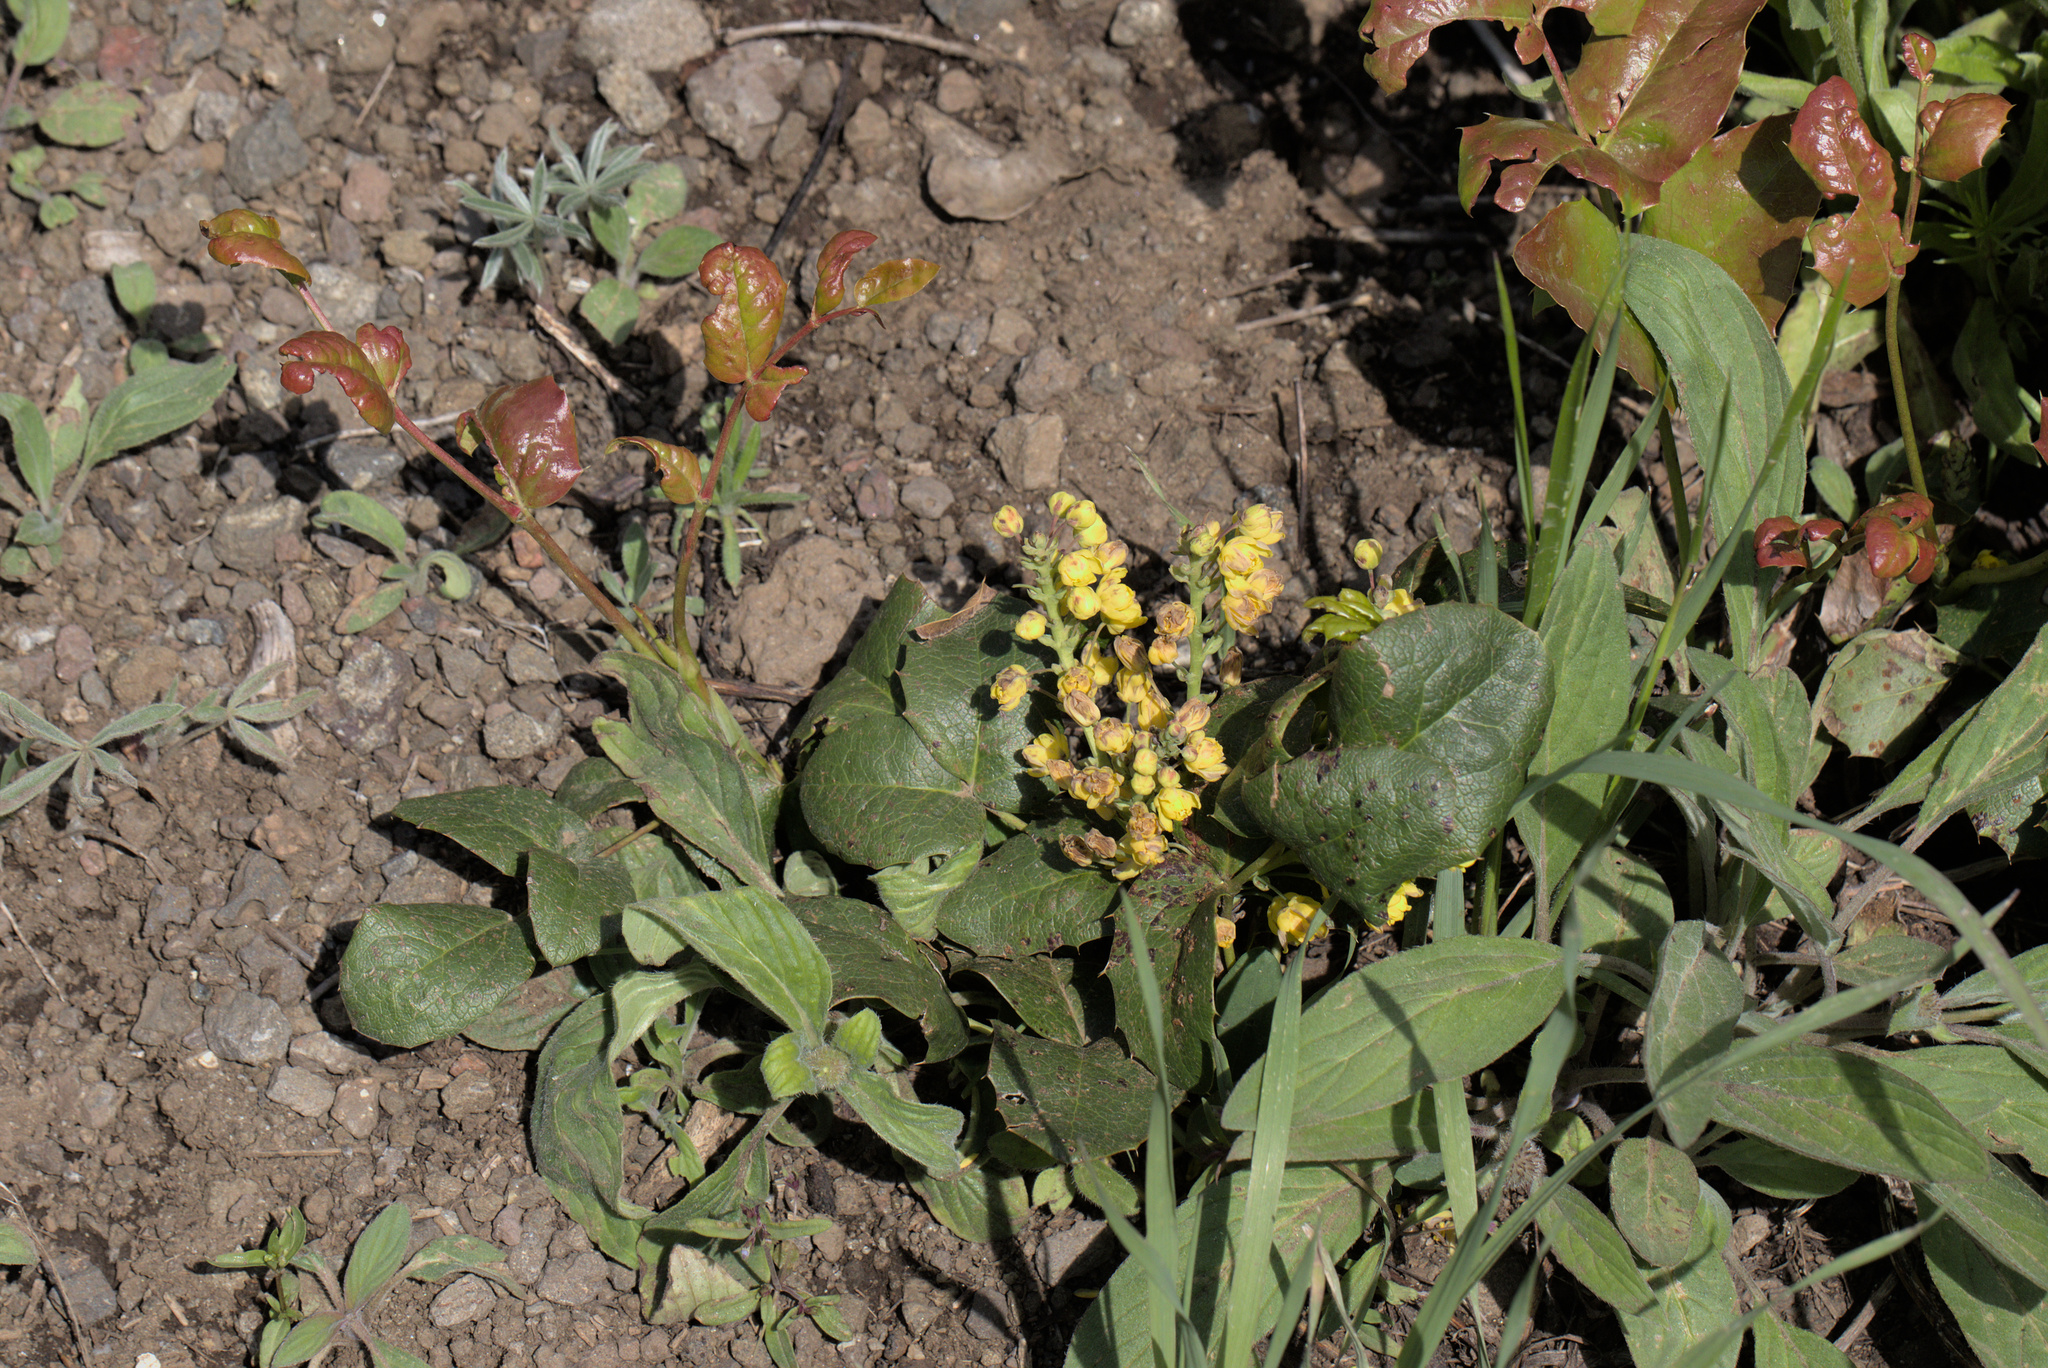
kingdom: Plantae
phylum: Tracheophyta
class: Magnoliopsida
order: Ranunculales
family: Berberidaceae
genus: Mahonia
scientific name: Mahonia repens
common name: Creeping oregon-grape
